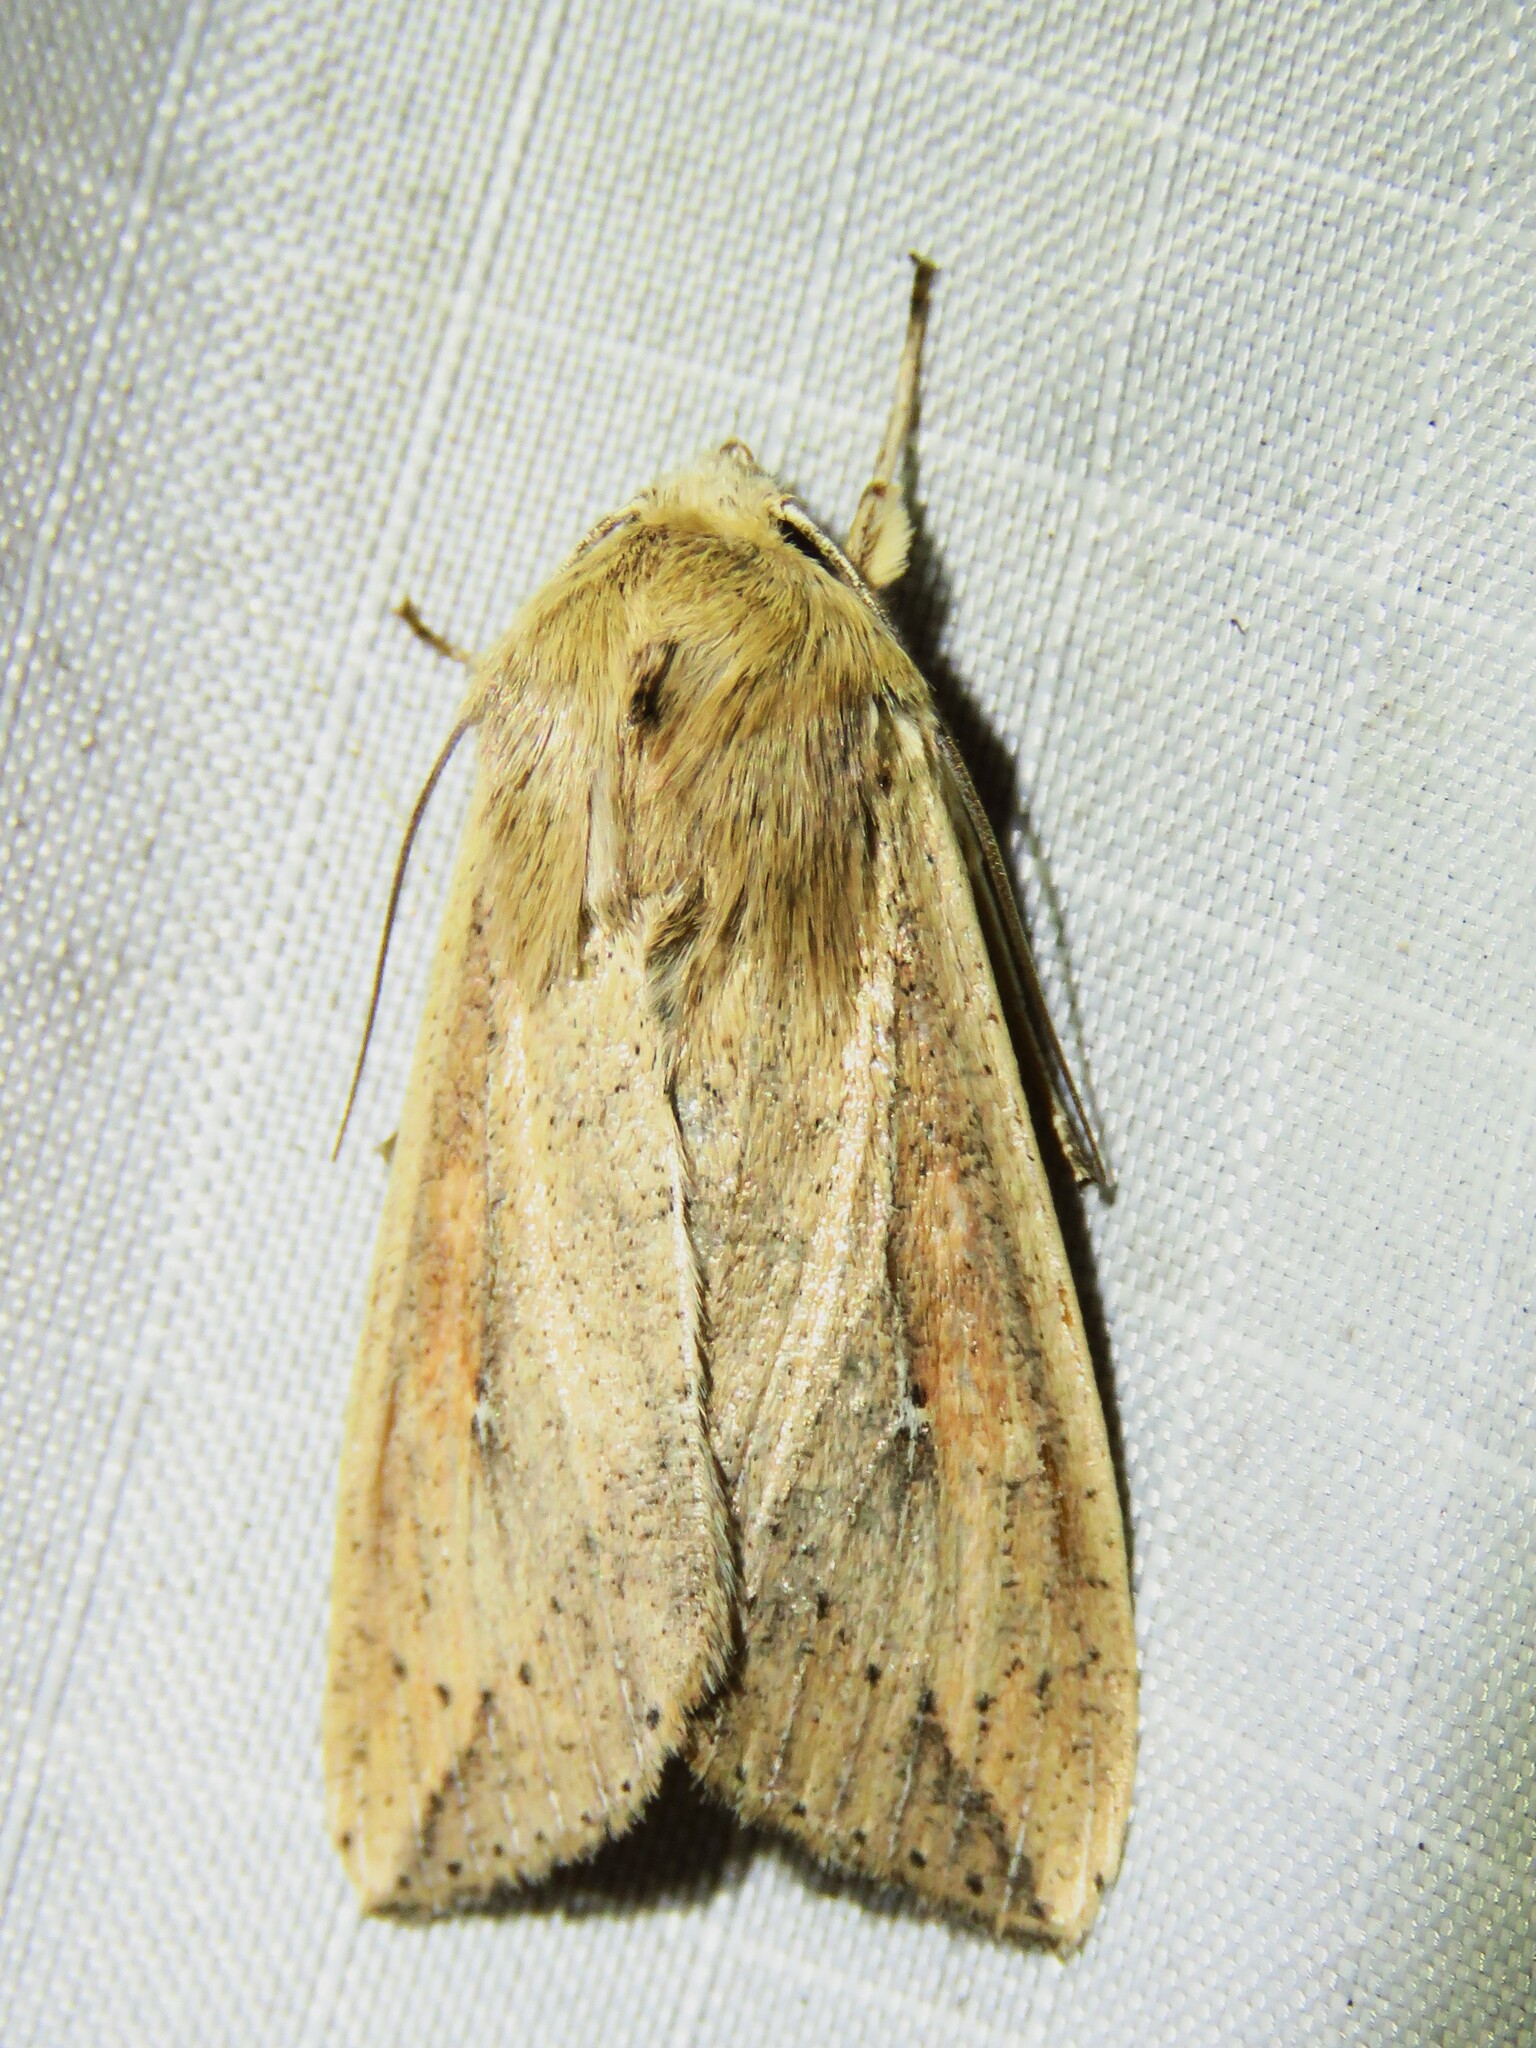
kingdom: Animalia
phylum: Arthropoda
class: Insecta
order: Lepidoptera
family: Noctuidae
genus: Mythimna
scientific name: Mythimna unipuncta
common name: White-speck
